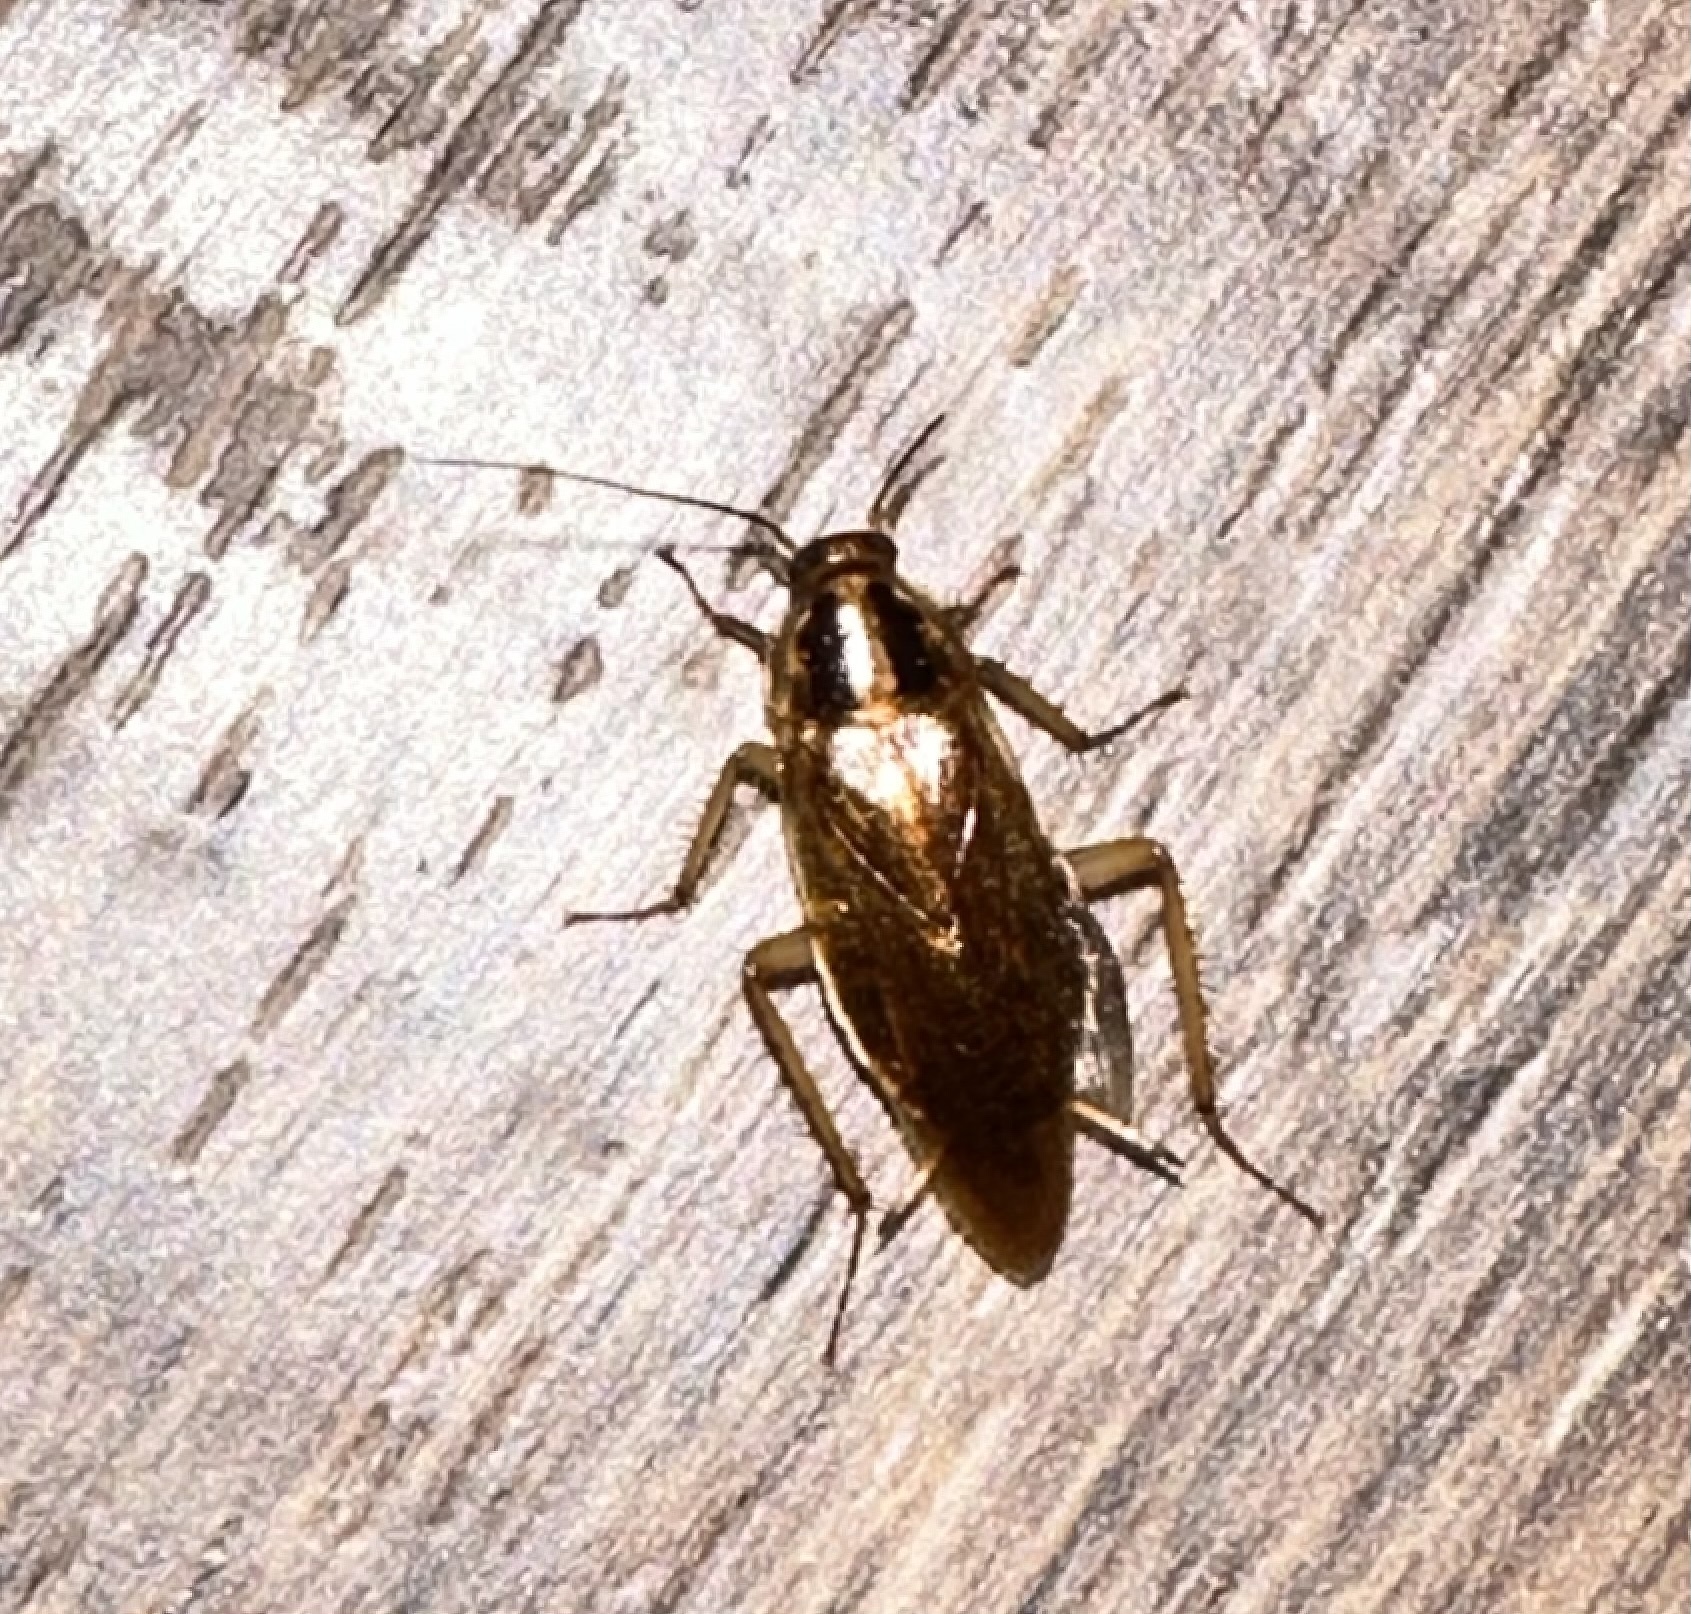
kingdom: Animalia
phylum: Arthropoda
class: Insecta
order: Blattodea
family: Ectobiidae
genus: Blattella
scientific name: Blattella germanica
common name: German cockroach
